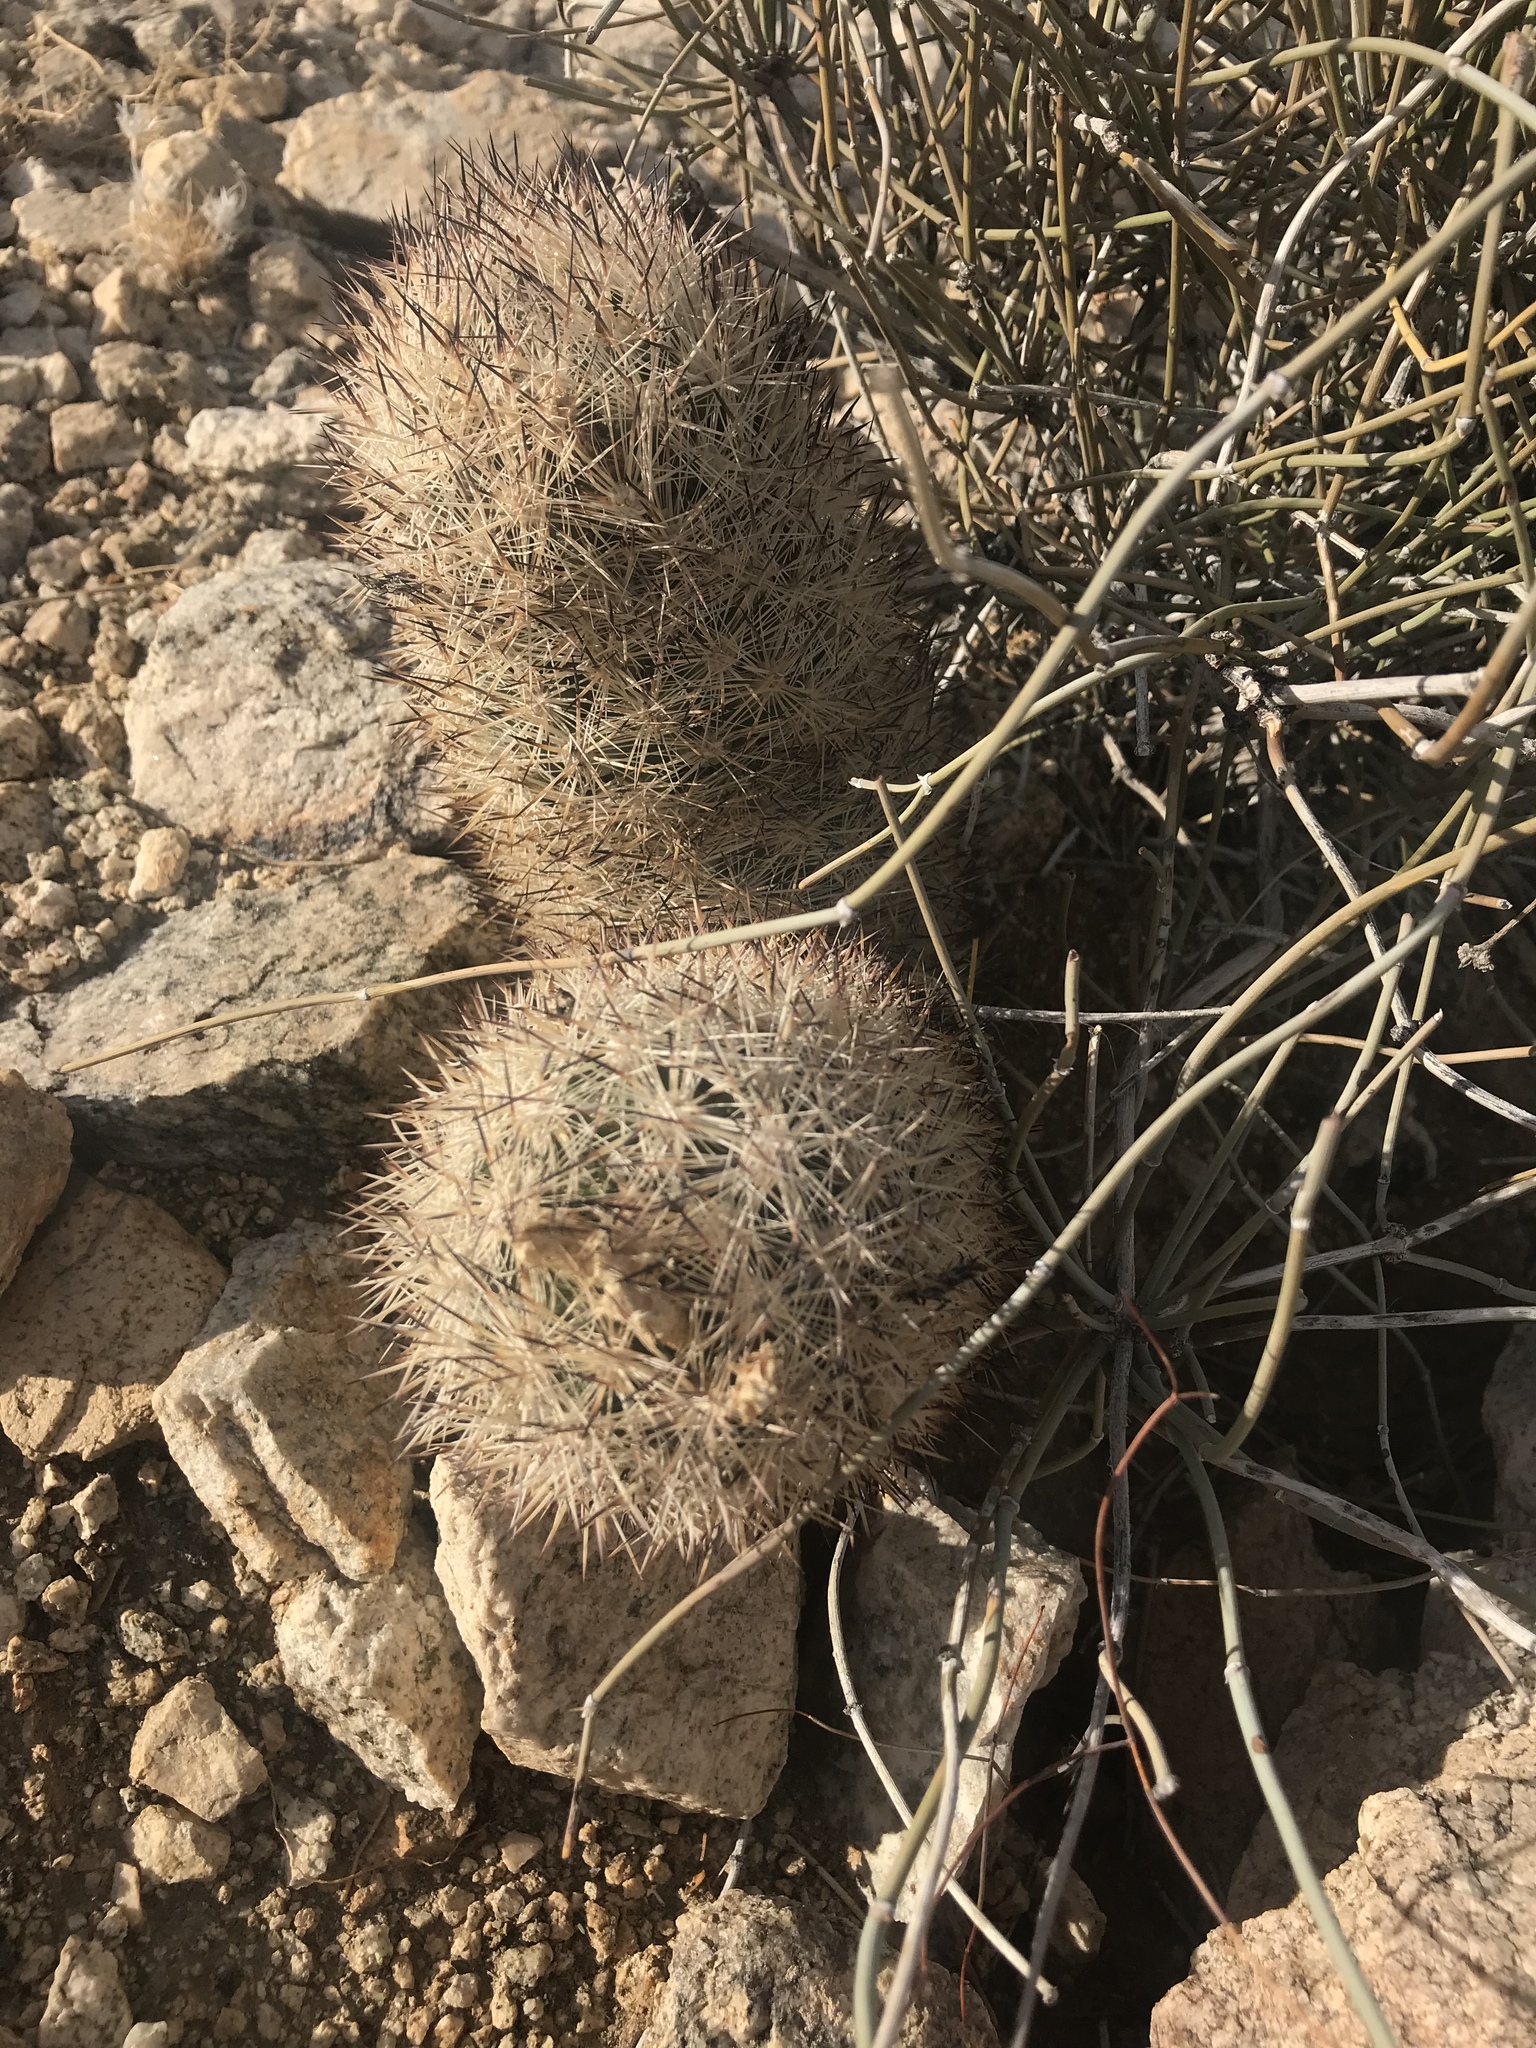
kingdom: Plantae
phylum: Tracheophyta
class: Magnoliopsida
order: Caryophyllales
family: Cactaceae
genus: Pelecyphora
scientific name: Pelecyphora alversonii
